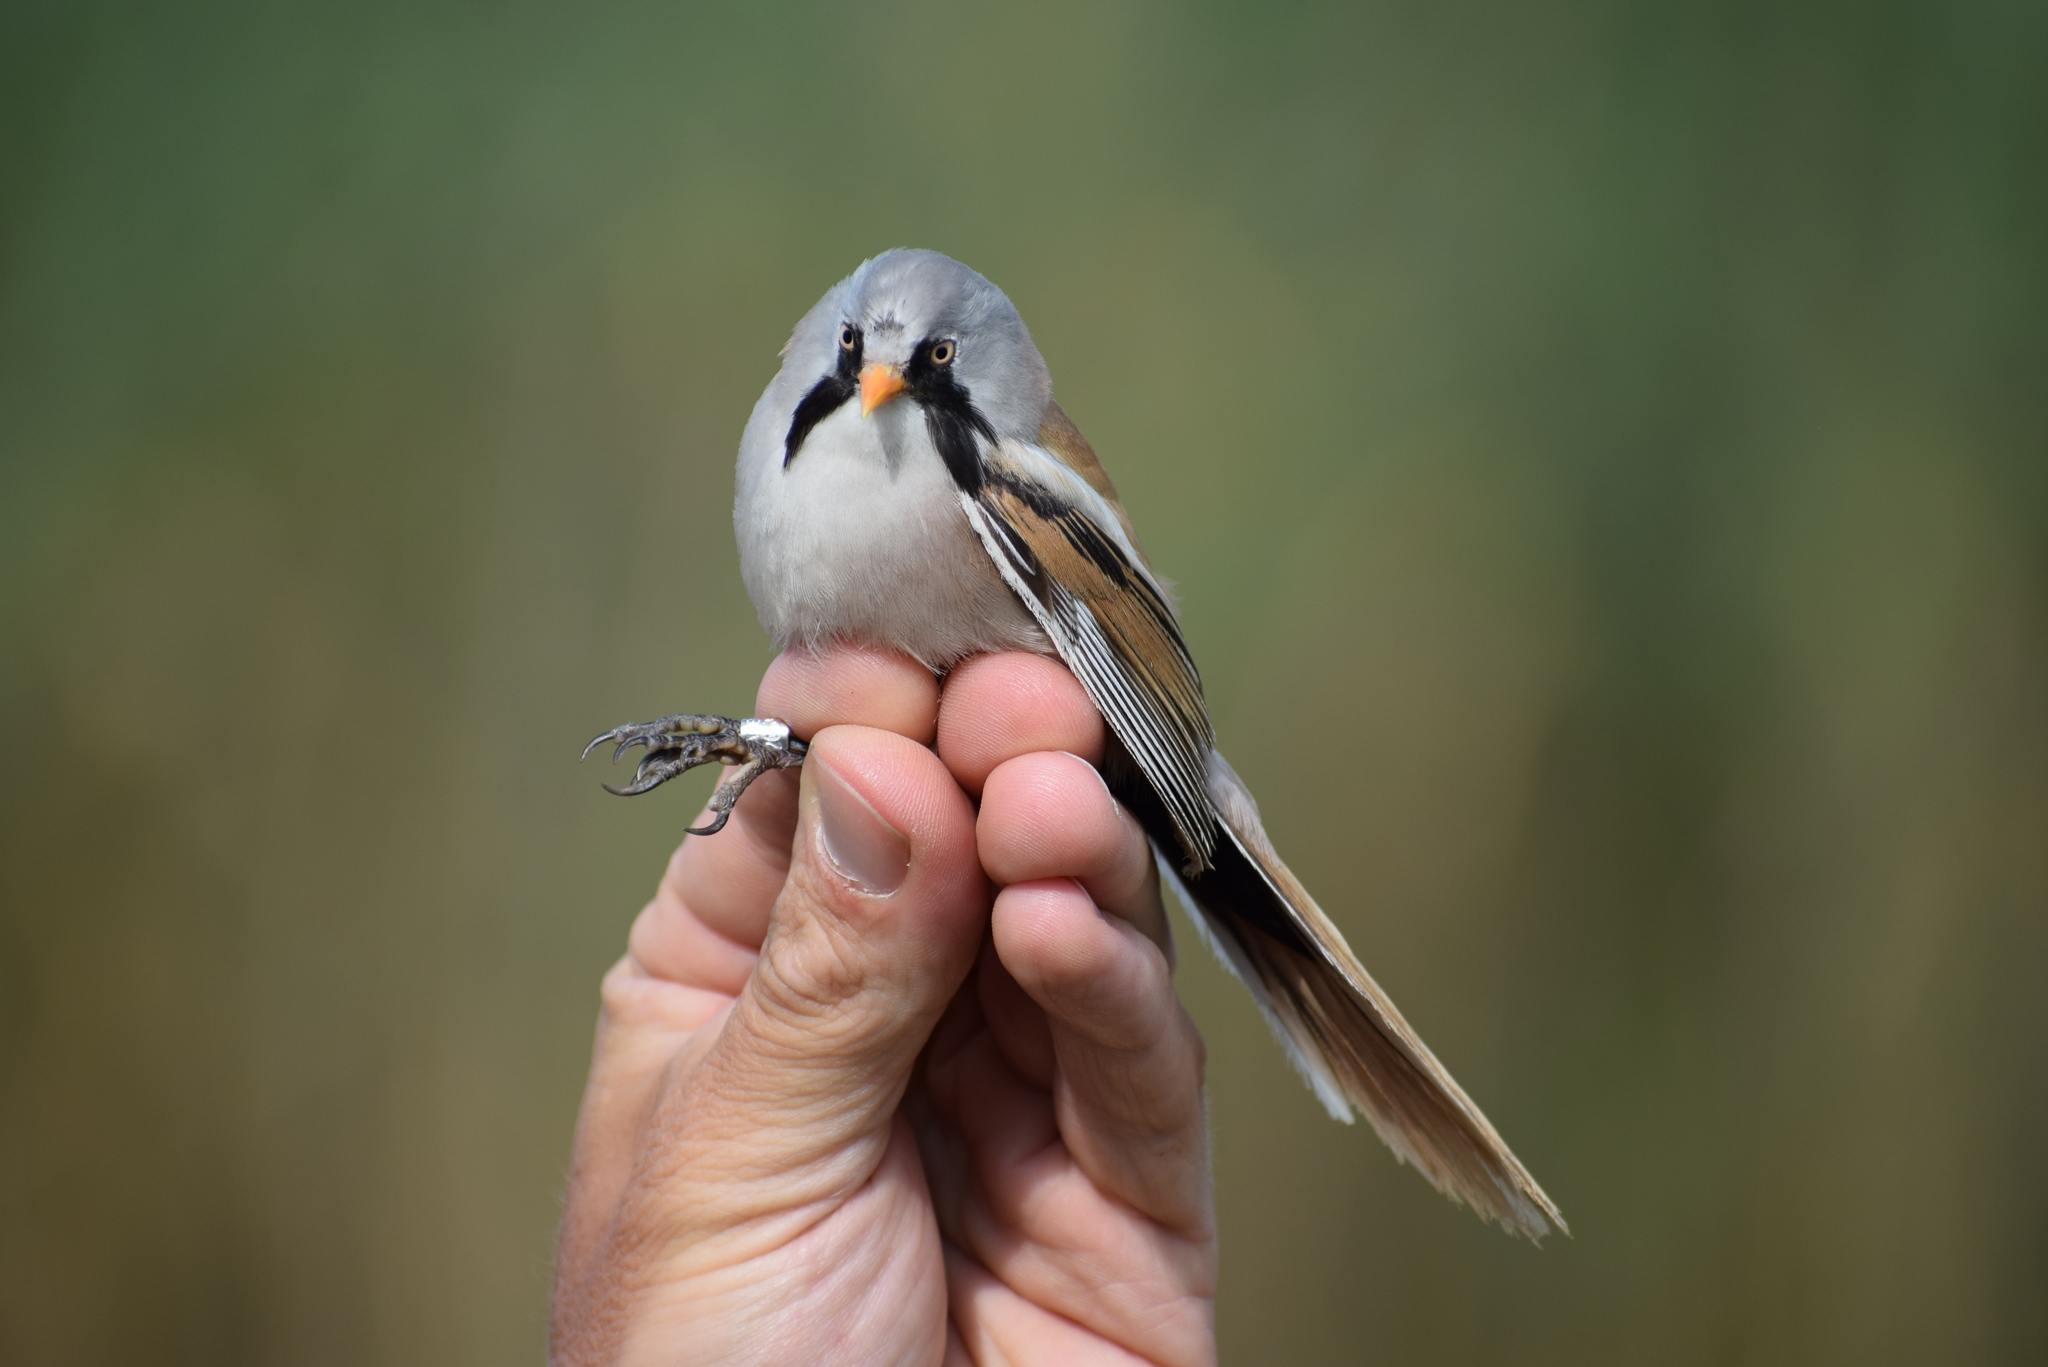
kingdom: Animalia
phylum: Chordata
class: Aves
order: Passeriformes
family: Panuridae
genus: Panurus
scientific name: Panurus biarmicus
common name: Bearded reedling
